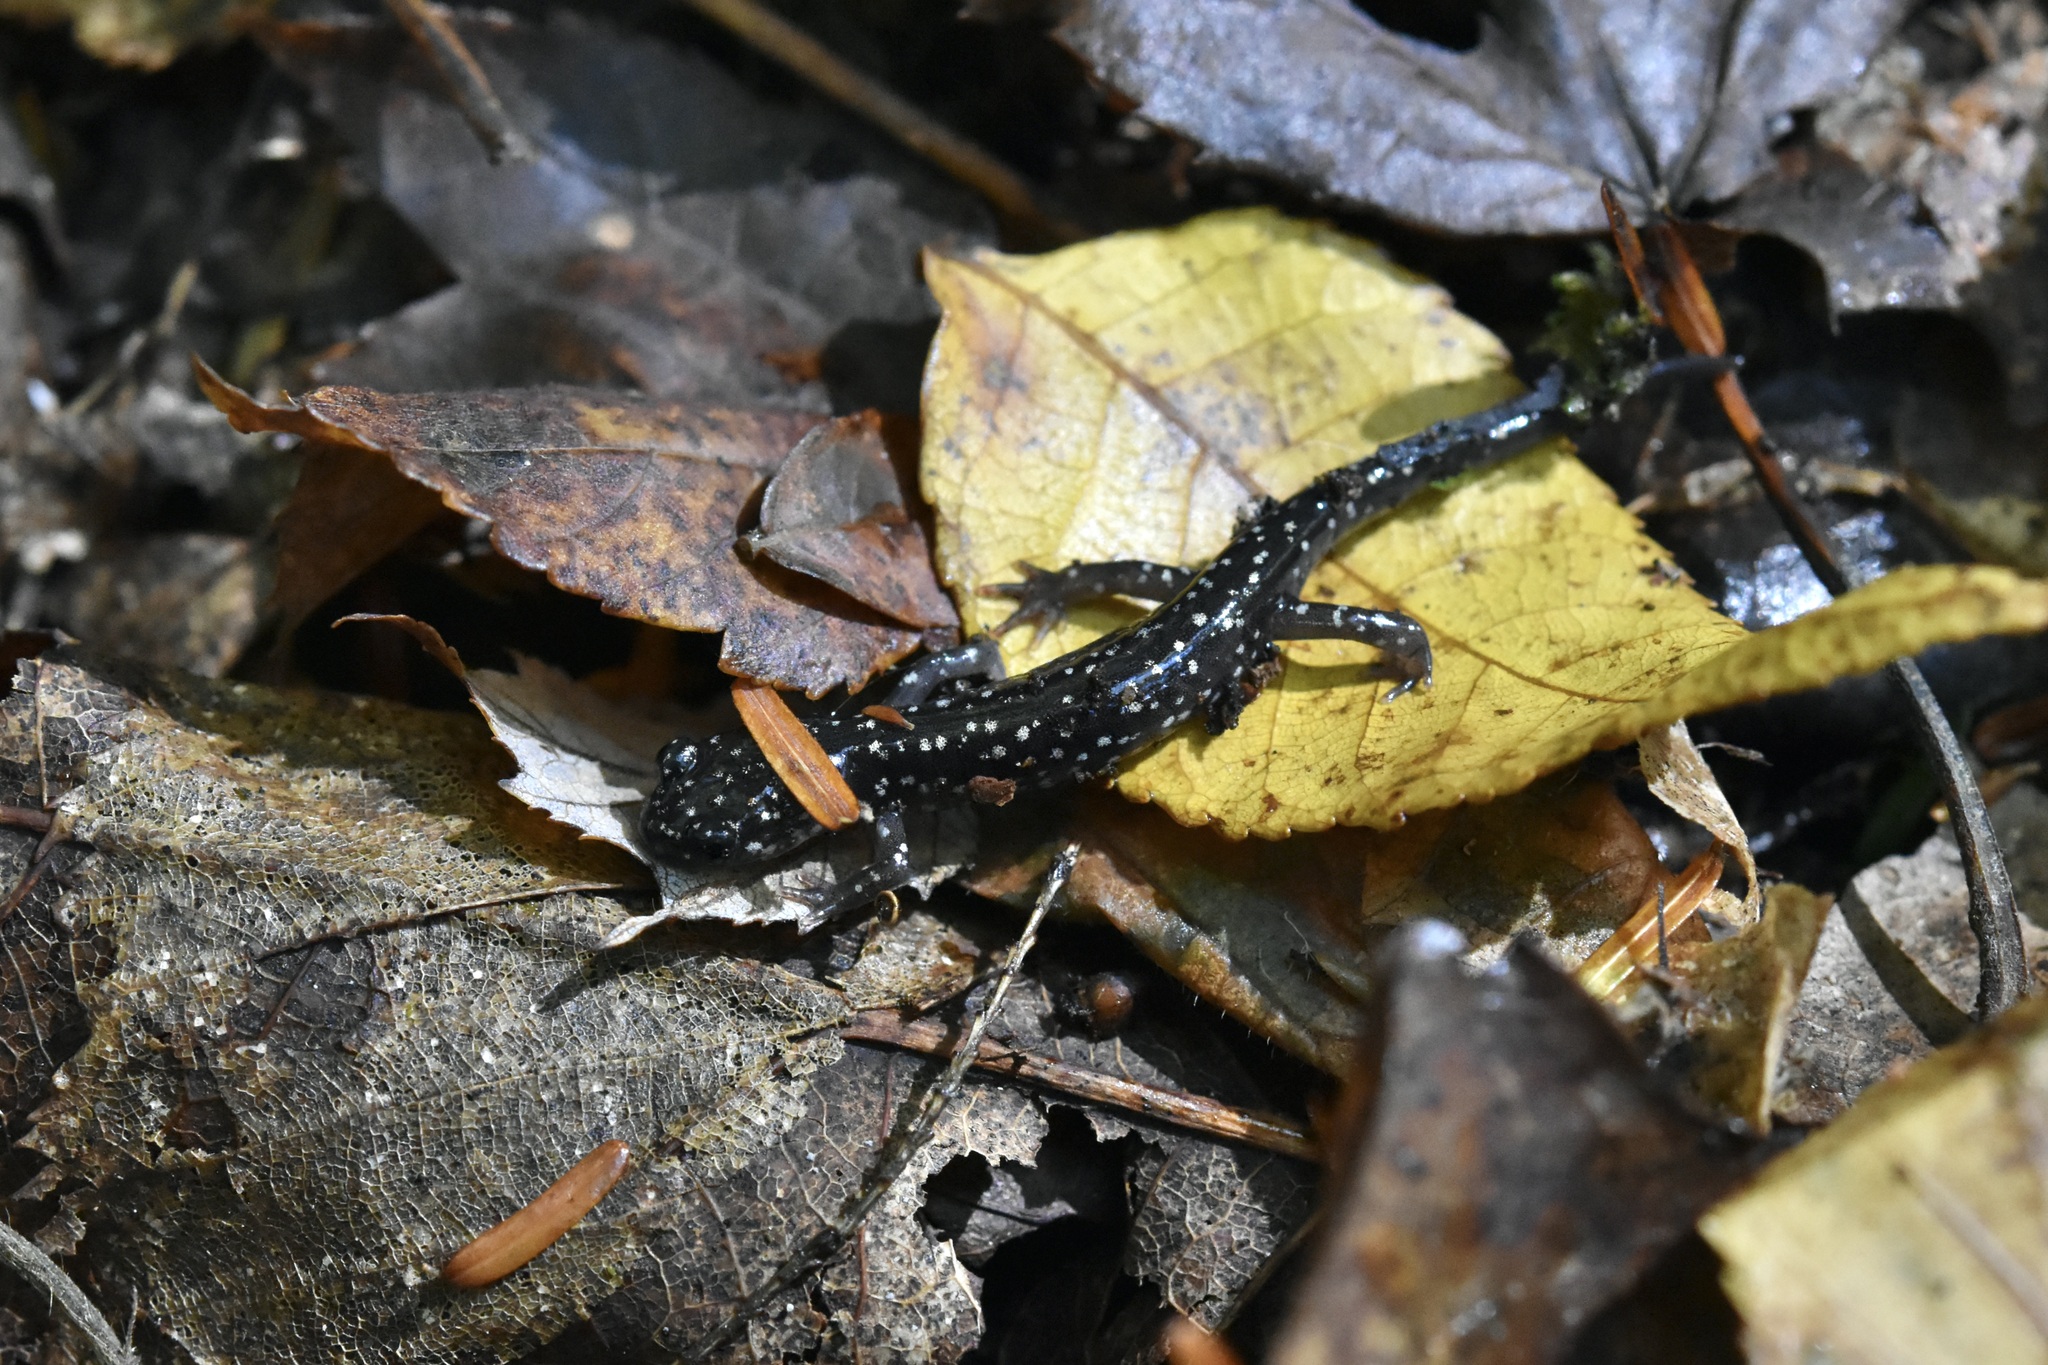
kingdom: Animalia
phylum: Chordata
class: Amphibia
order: Caudata
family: Plethodontidae
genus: Plethodon
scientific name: Plethodon glutinosus
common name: Northern slimy salamander
